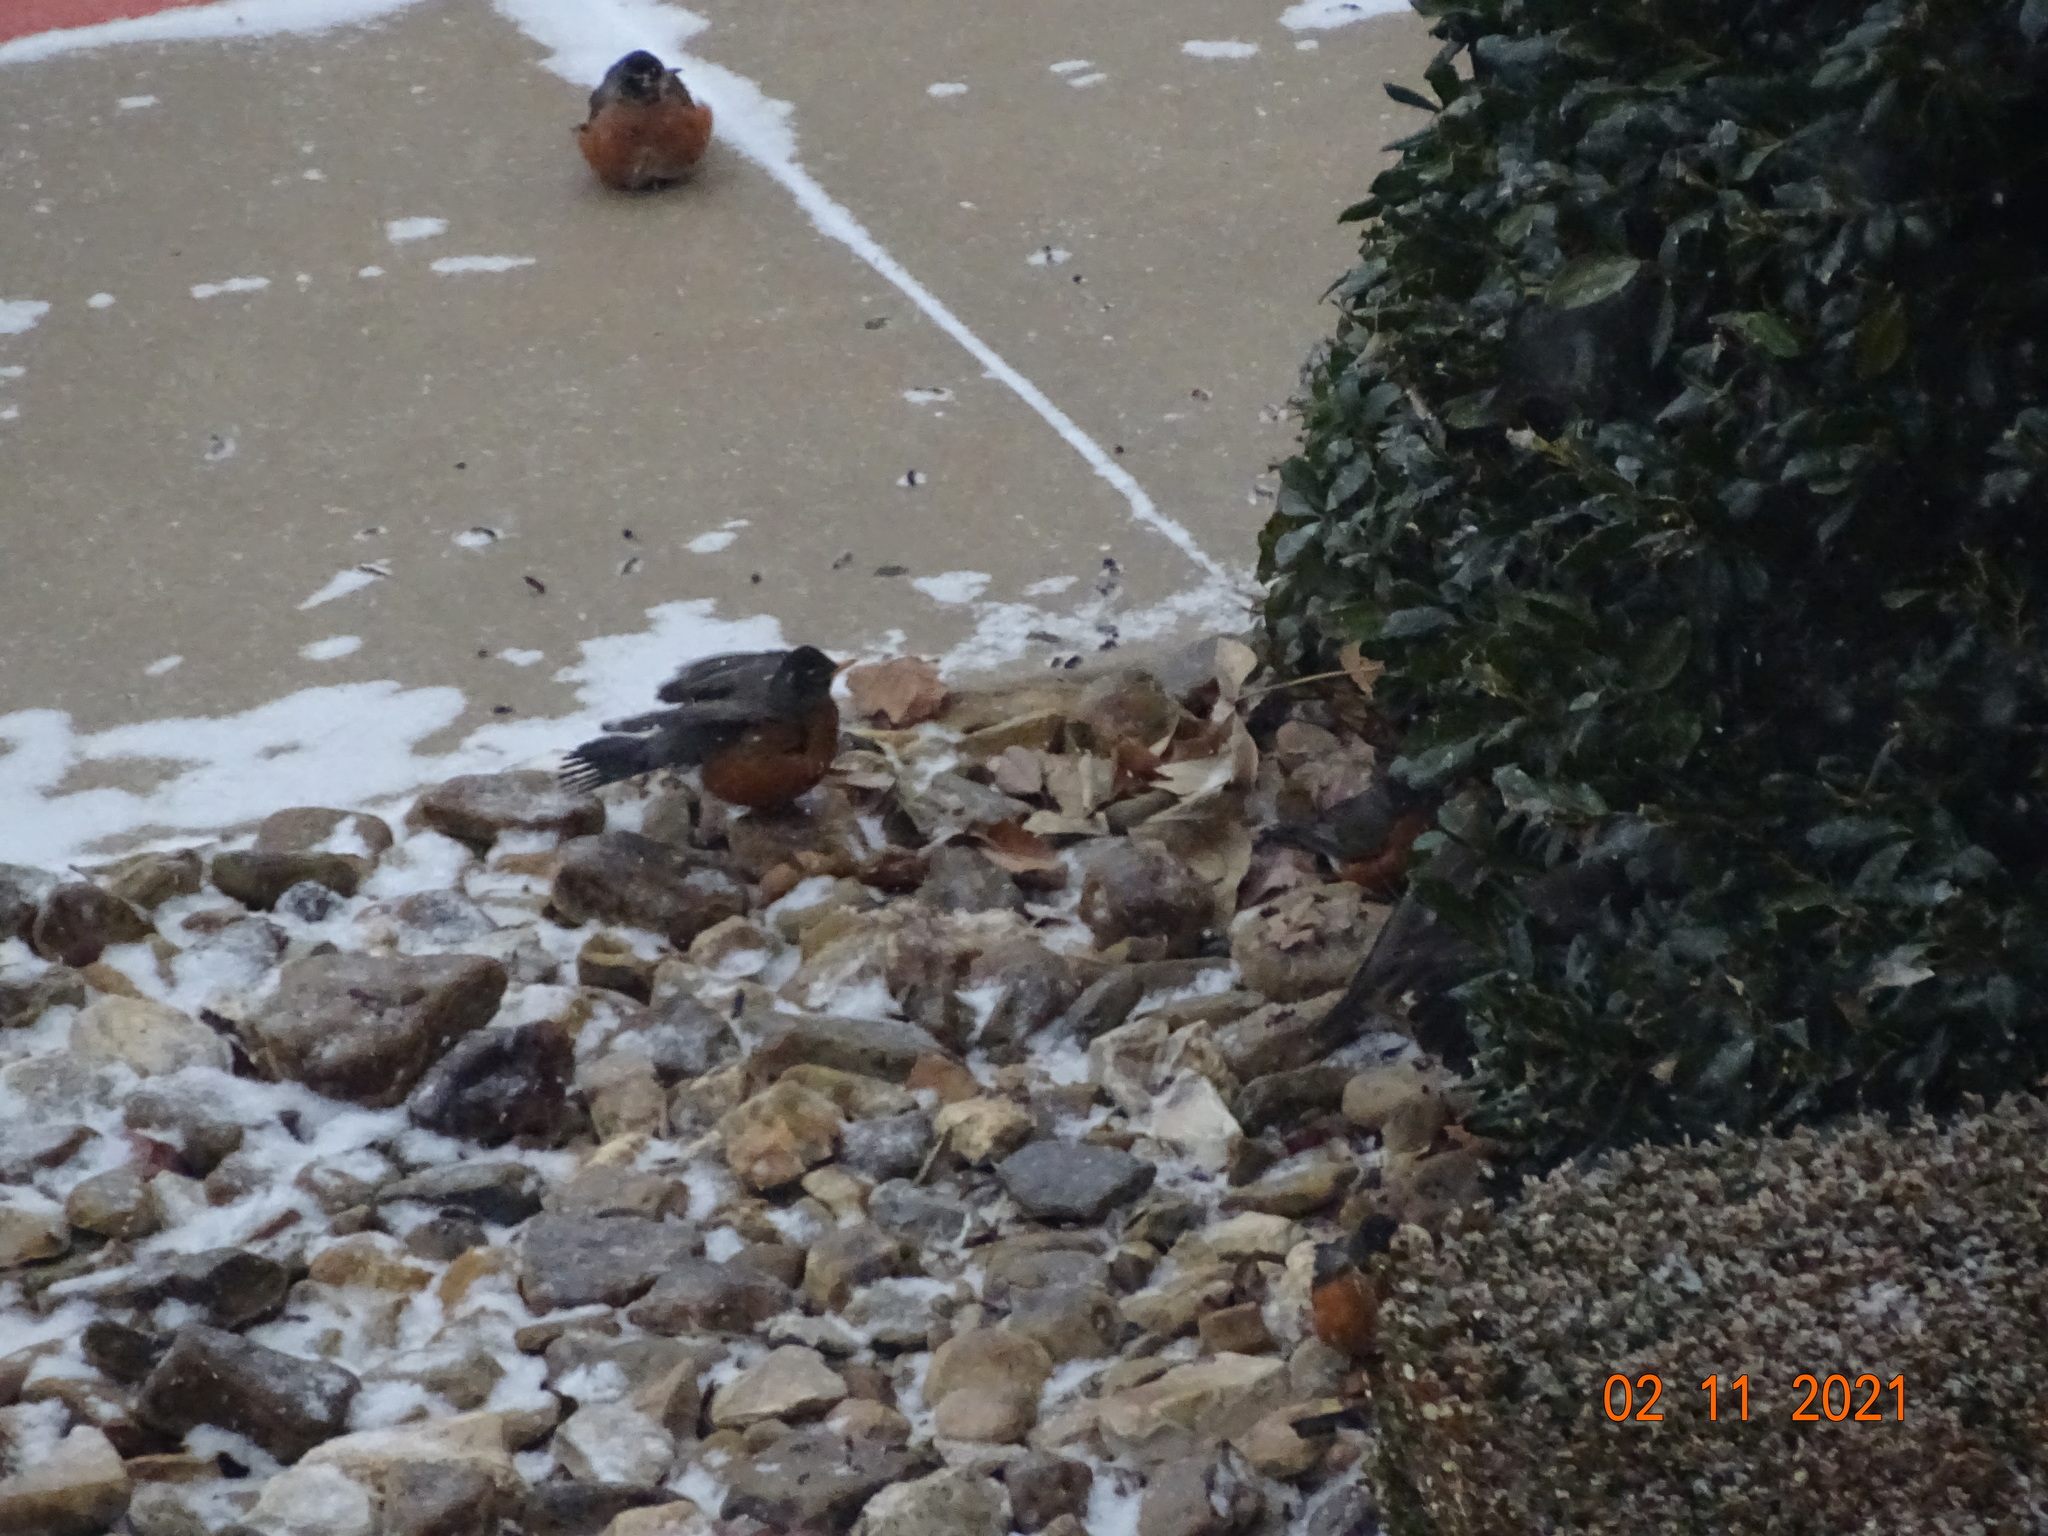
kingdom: Animalia
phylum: Chordata
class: Aves
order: Passeriformes
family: Turdidae
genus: Turdus
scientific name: Turdus migratorius
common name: American robin
